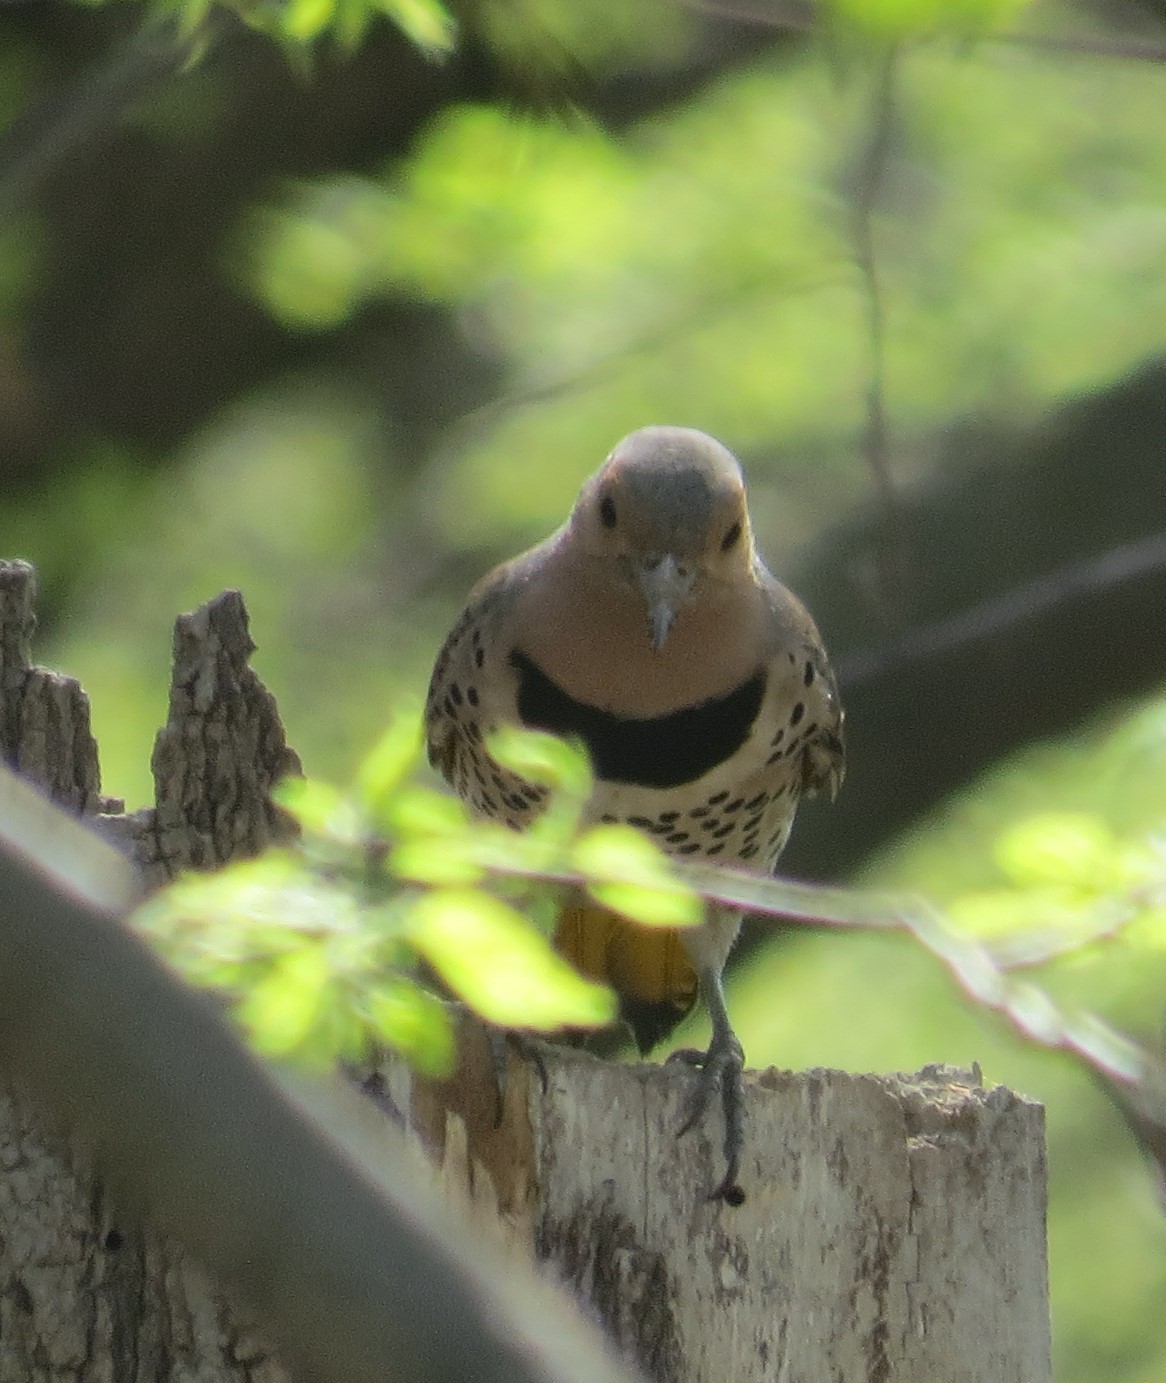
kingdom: Animalia
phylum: Chordata
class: Aves
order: Piciformes
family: Picidae
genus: Colaptes
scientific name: Colaptes auratus
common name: Northern flicker
